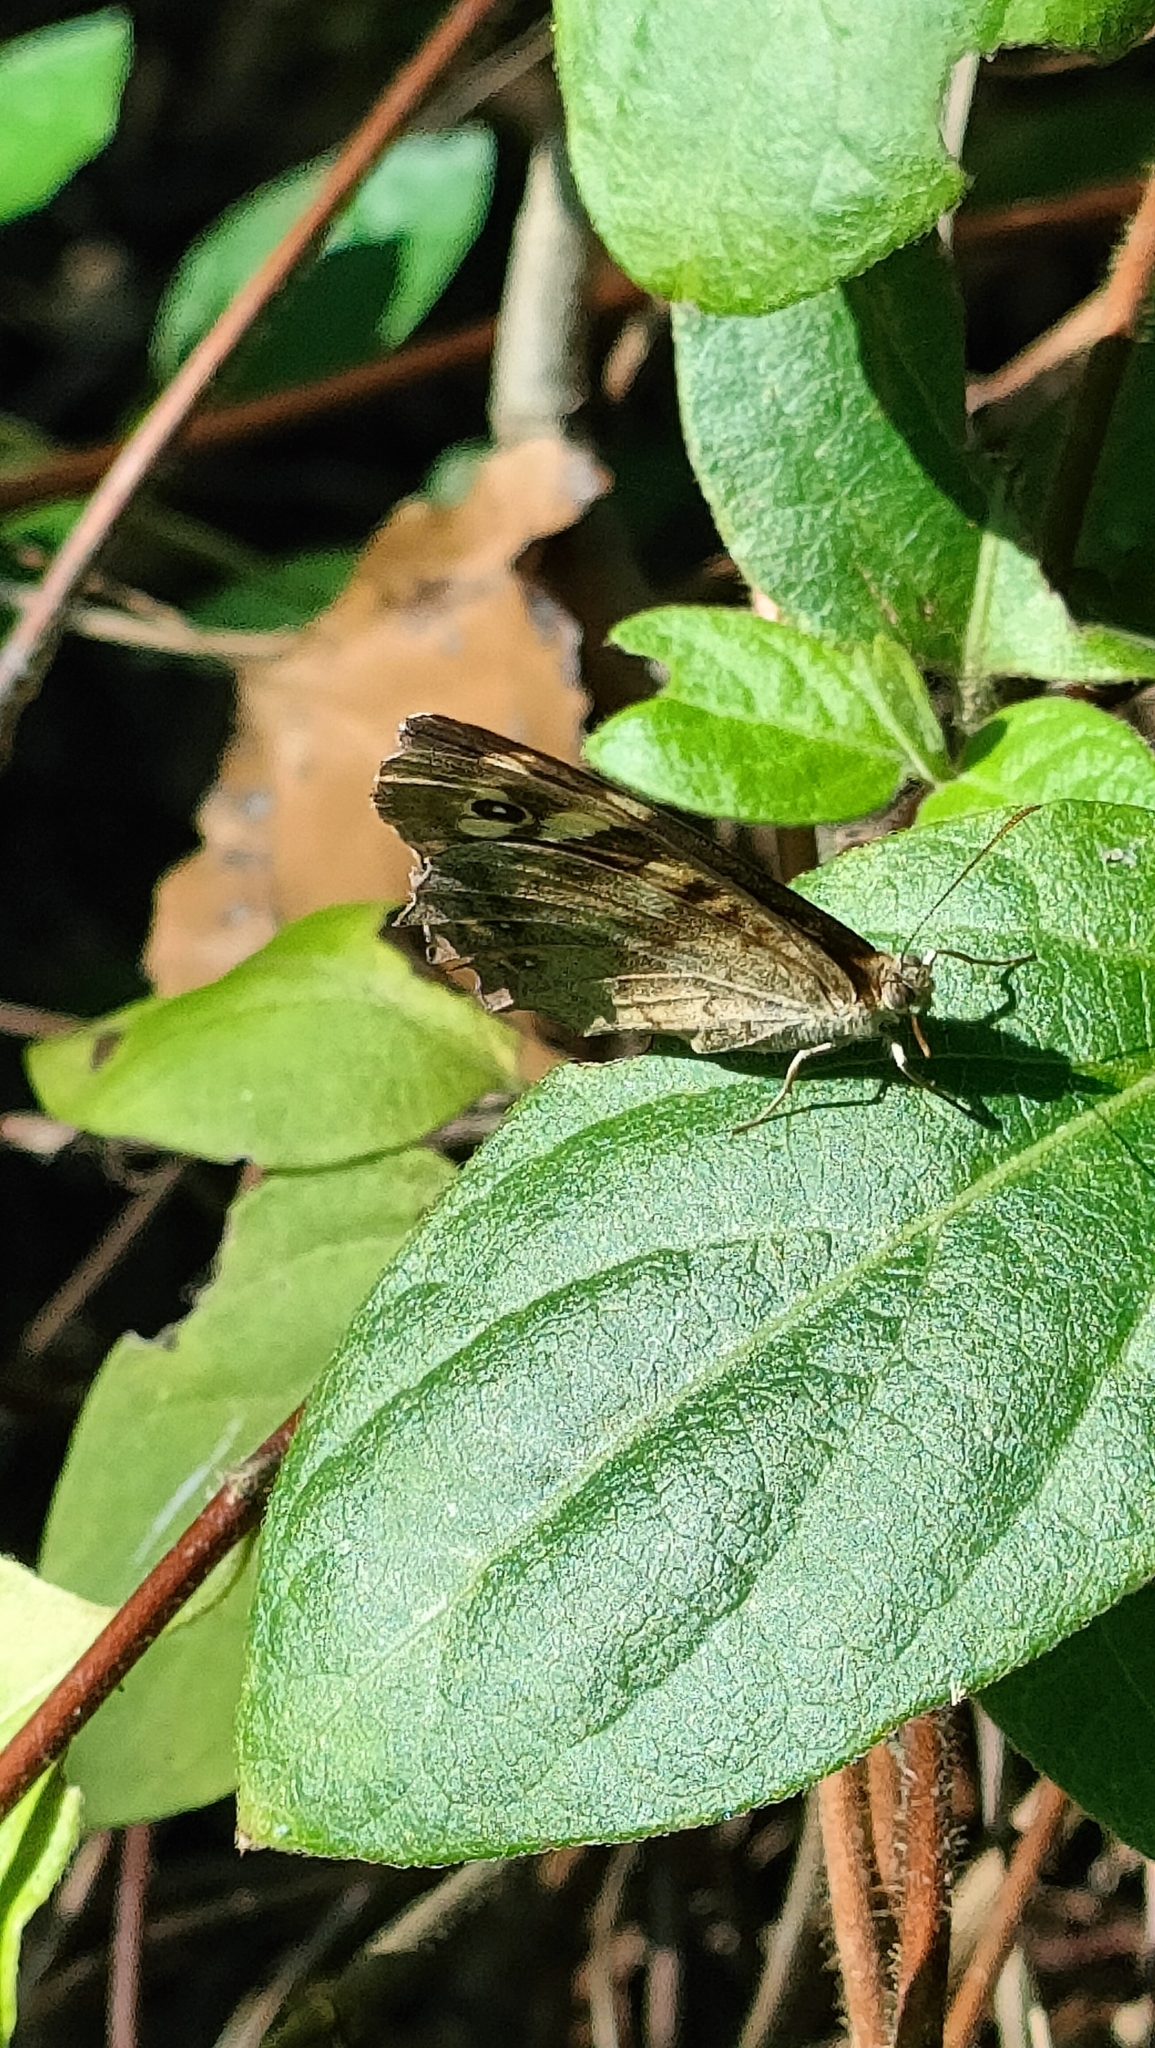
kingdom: Animalia
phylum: Arthropoda
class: Insecta
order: Lepidoptera
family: Nymphalidae
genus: Pararge
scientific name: Pararge aegeria
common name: Speckled wood
